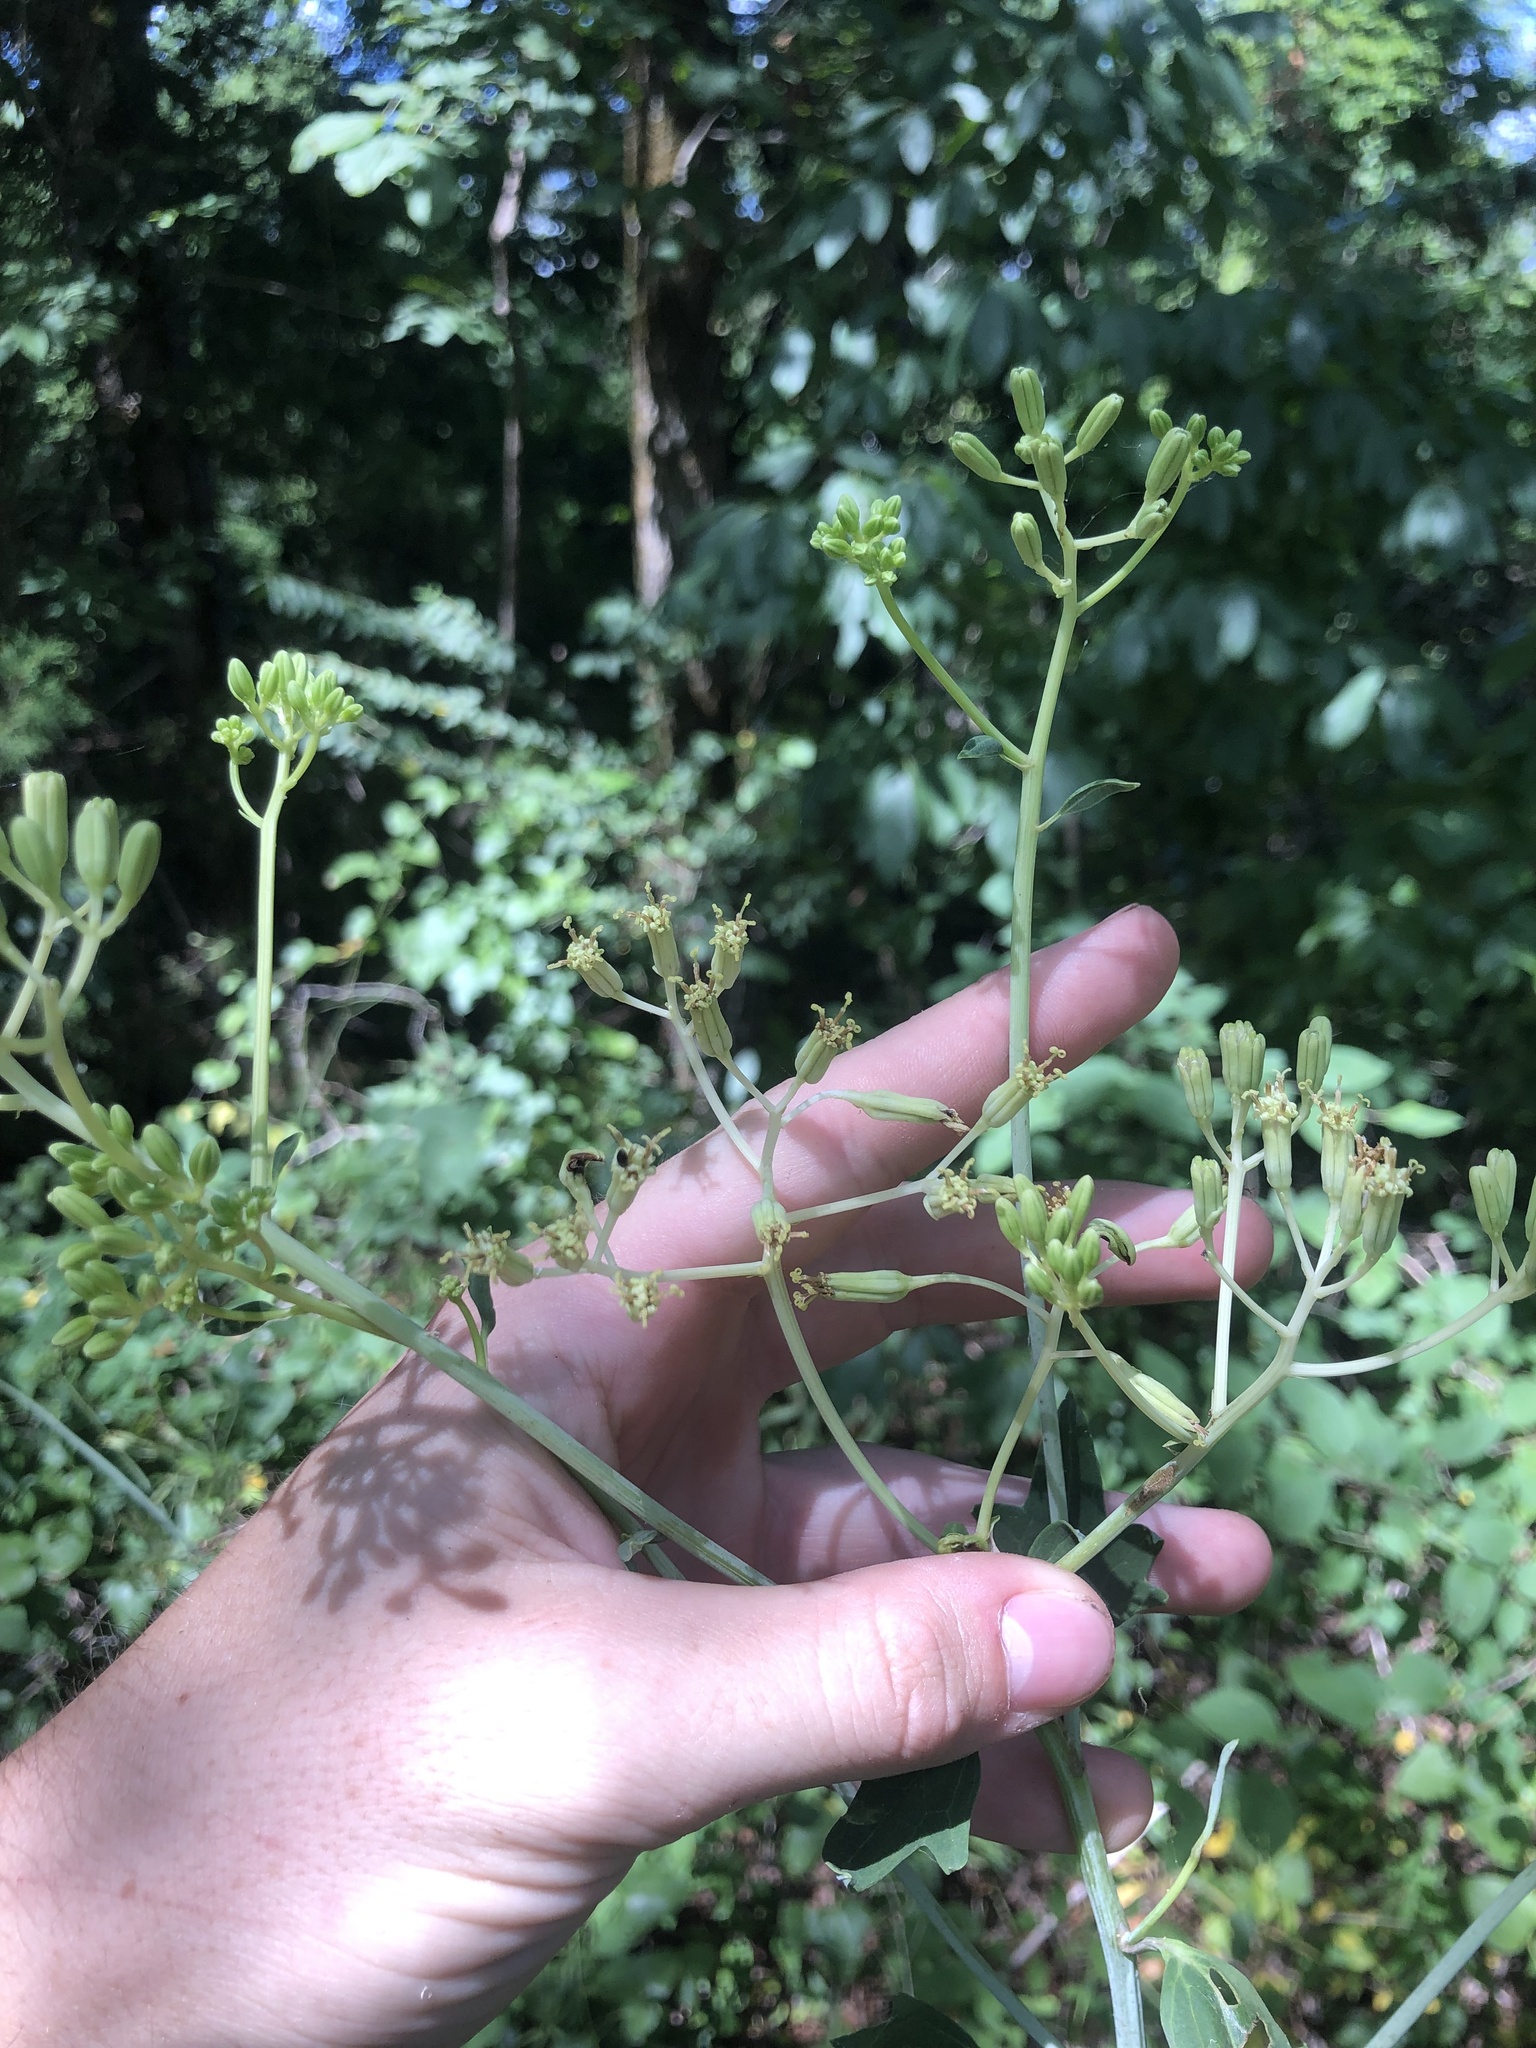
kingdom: Plantae
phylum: Tracheophyta
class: Magnoliopsida
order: Asterales
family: Asteraceae
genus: Arnoglossum
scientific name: Arnoglossum atriplicifolium
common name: Pale indian-plantain
